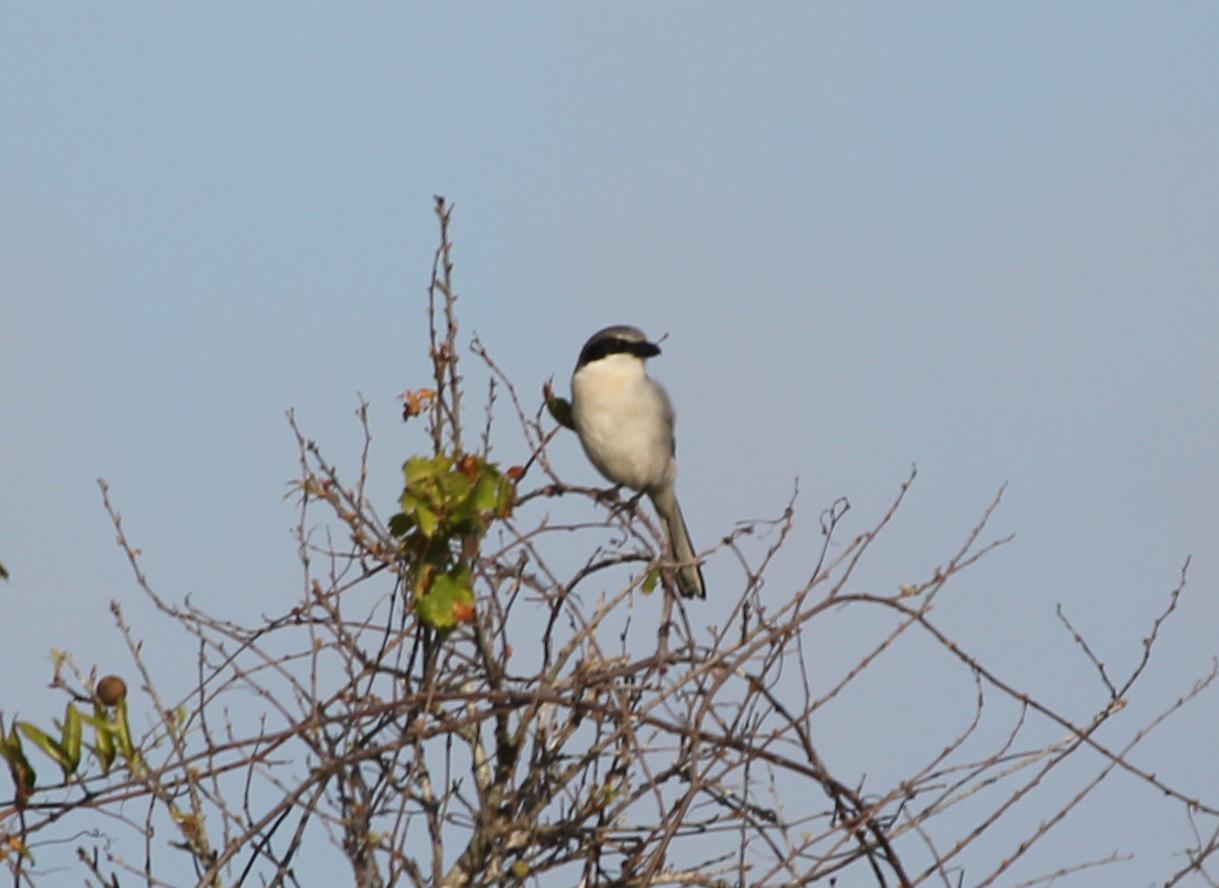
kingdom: Animalia
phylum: Chordata
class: Aves
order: Passeriformes
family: Laniidae
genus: Lanius
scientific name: Lanius ludovicianus
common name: Loggerhead shrike
